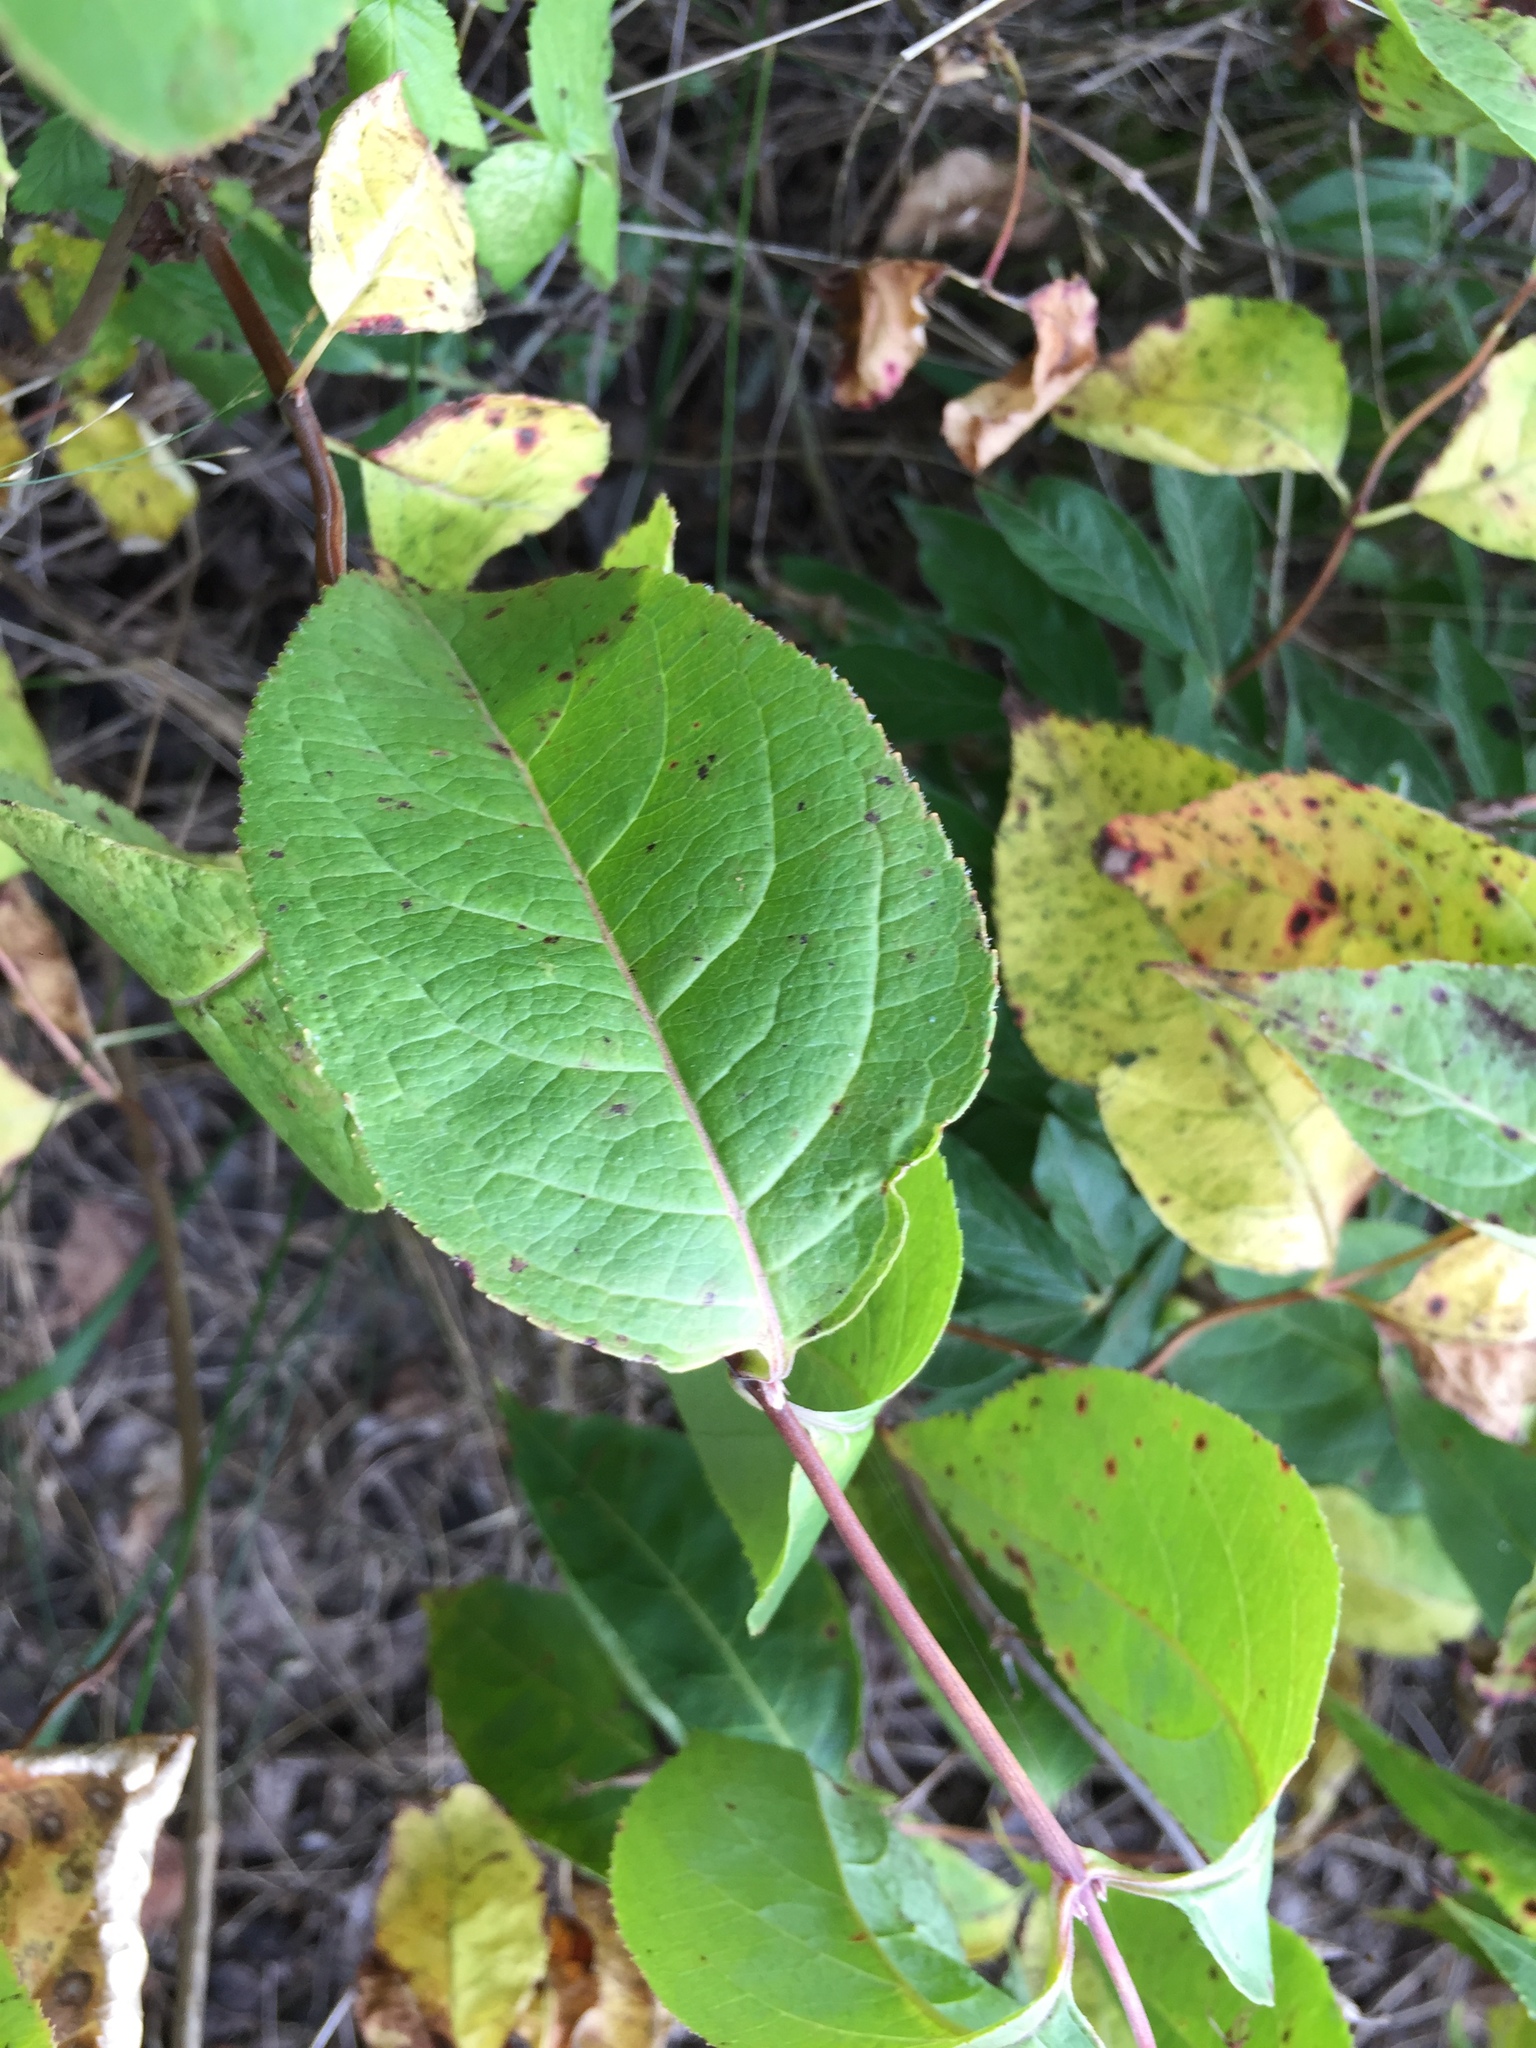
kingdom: Plantae
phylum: Tracheophyta
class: Magnoliopsida
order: Dipsacales
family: Caprifoliaceae
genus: Diervilla
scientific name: Diervilla lonicera
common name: Bush-honeysuckle
